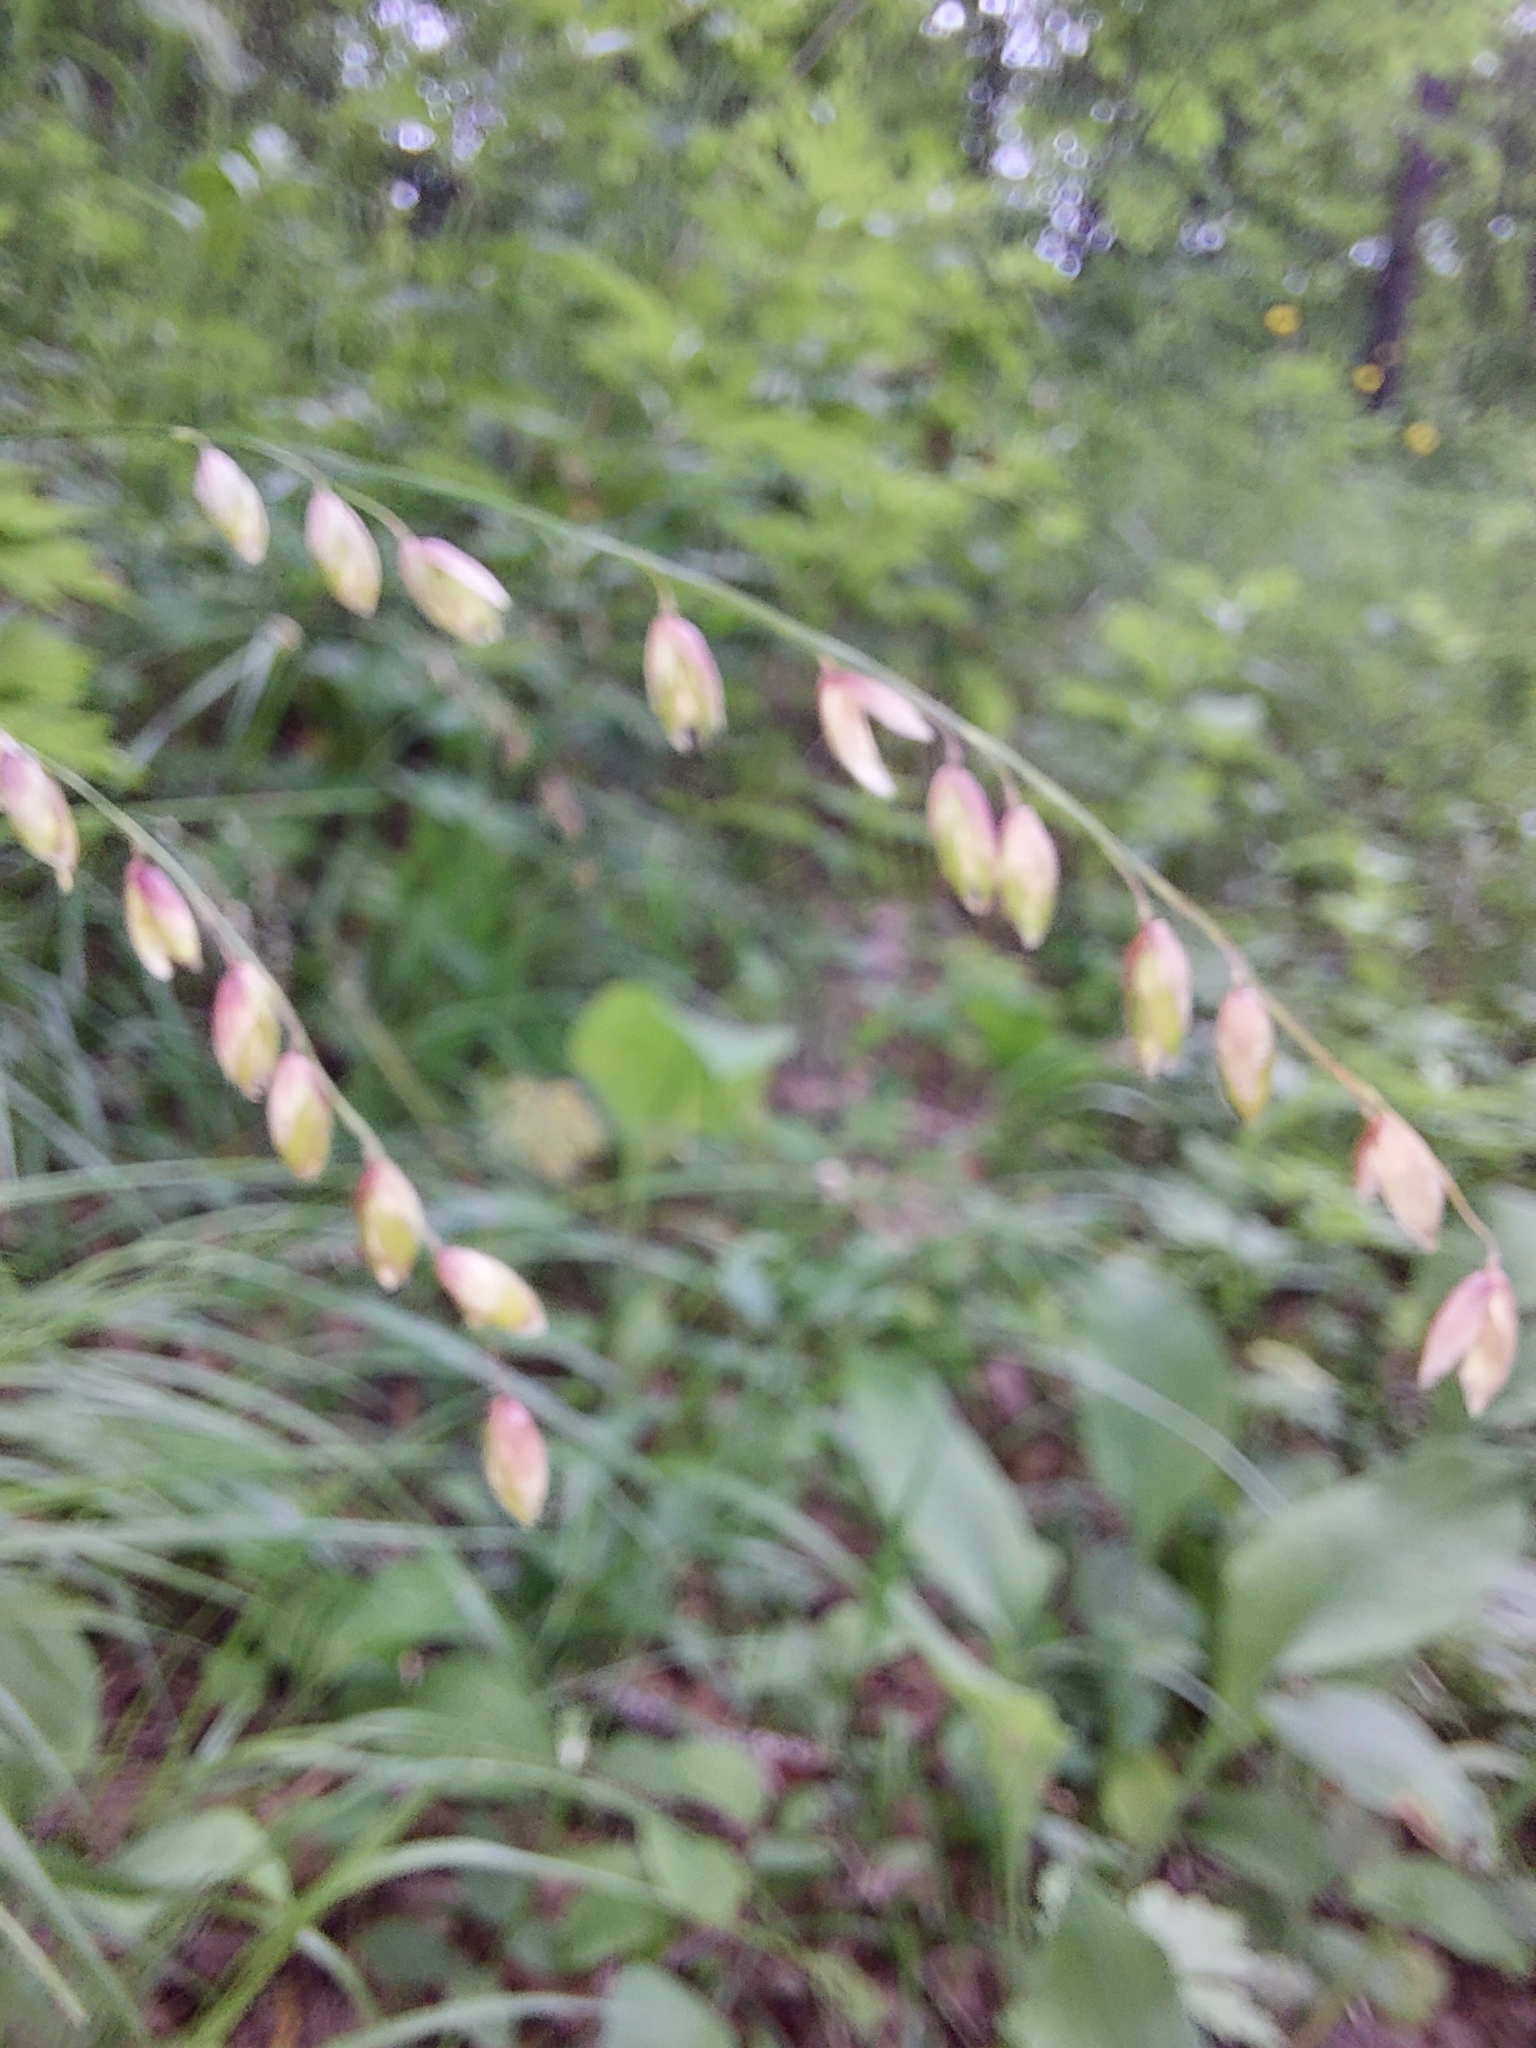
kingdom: Plantae
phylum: Tracheophyta
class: Liliopsida
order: Poales
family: Poaceae
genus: Melica
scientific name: Melica nutans
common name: Mountain melick
